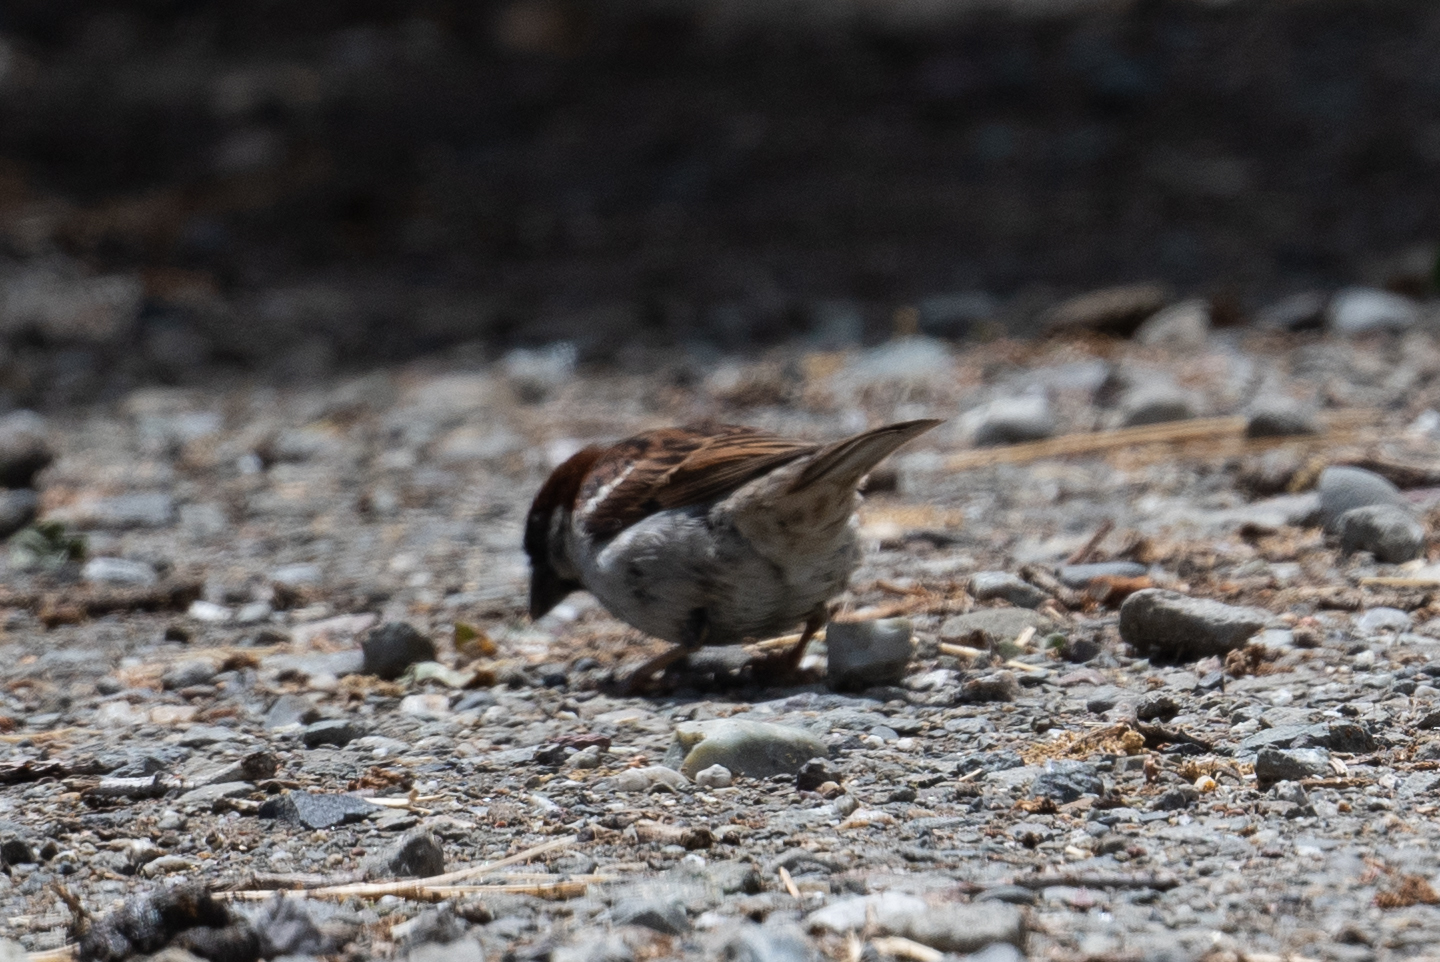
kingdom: Animalia
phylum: Chordata
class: Aves
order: Passeriformes
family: Passeridae
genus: Passer
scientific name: Passer domesticus
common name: House sparrow
